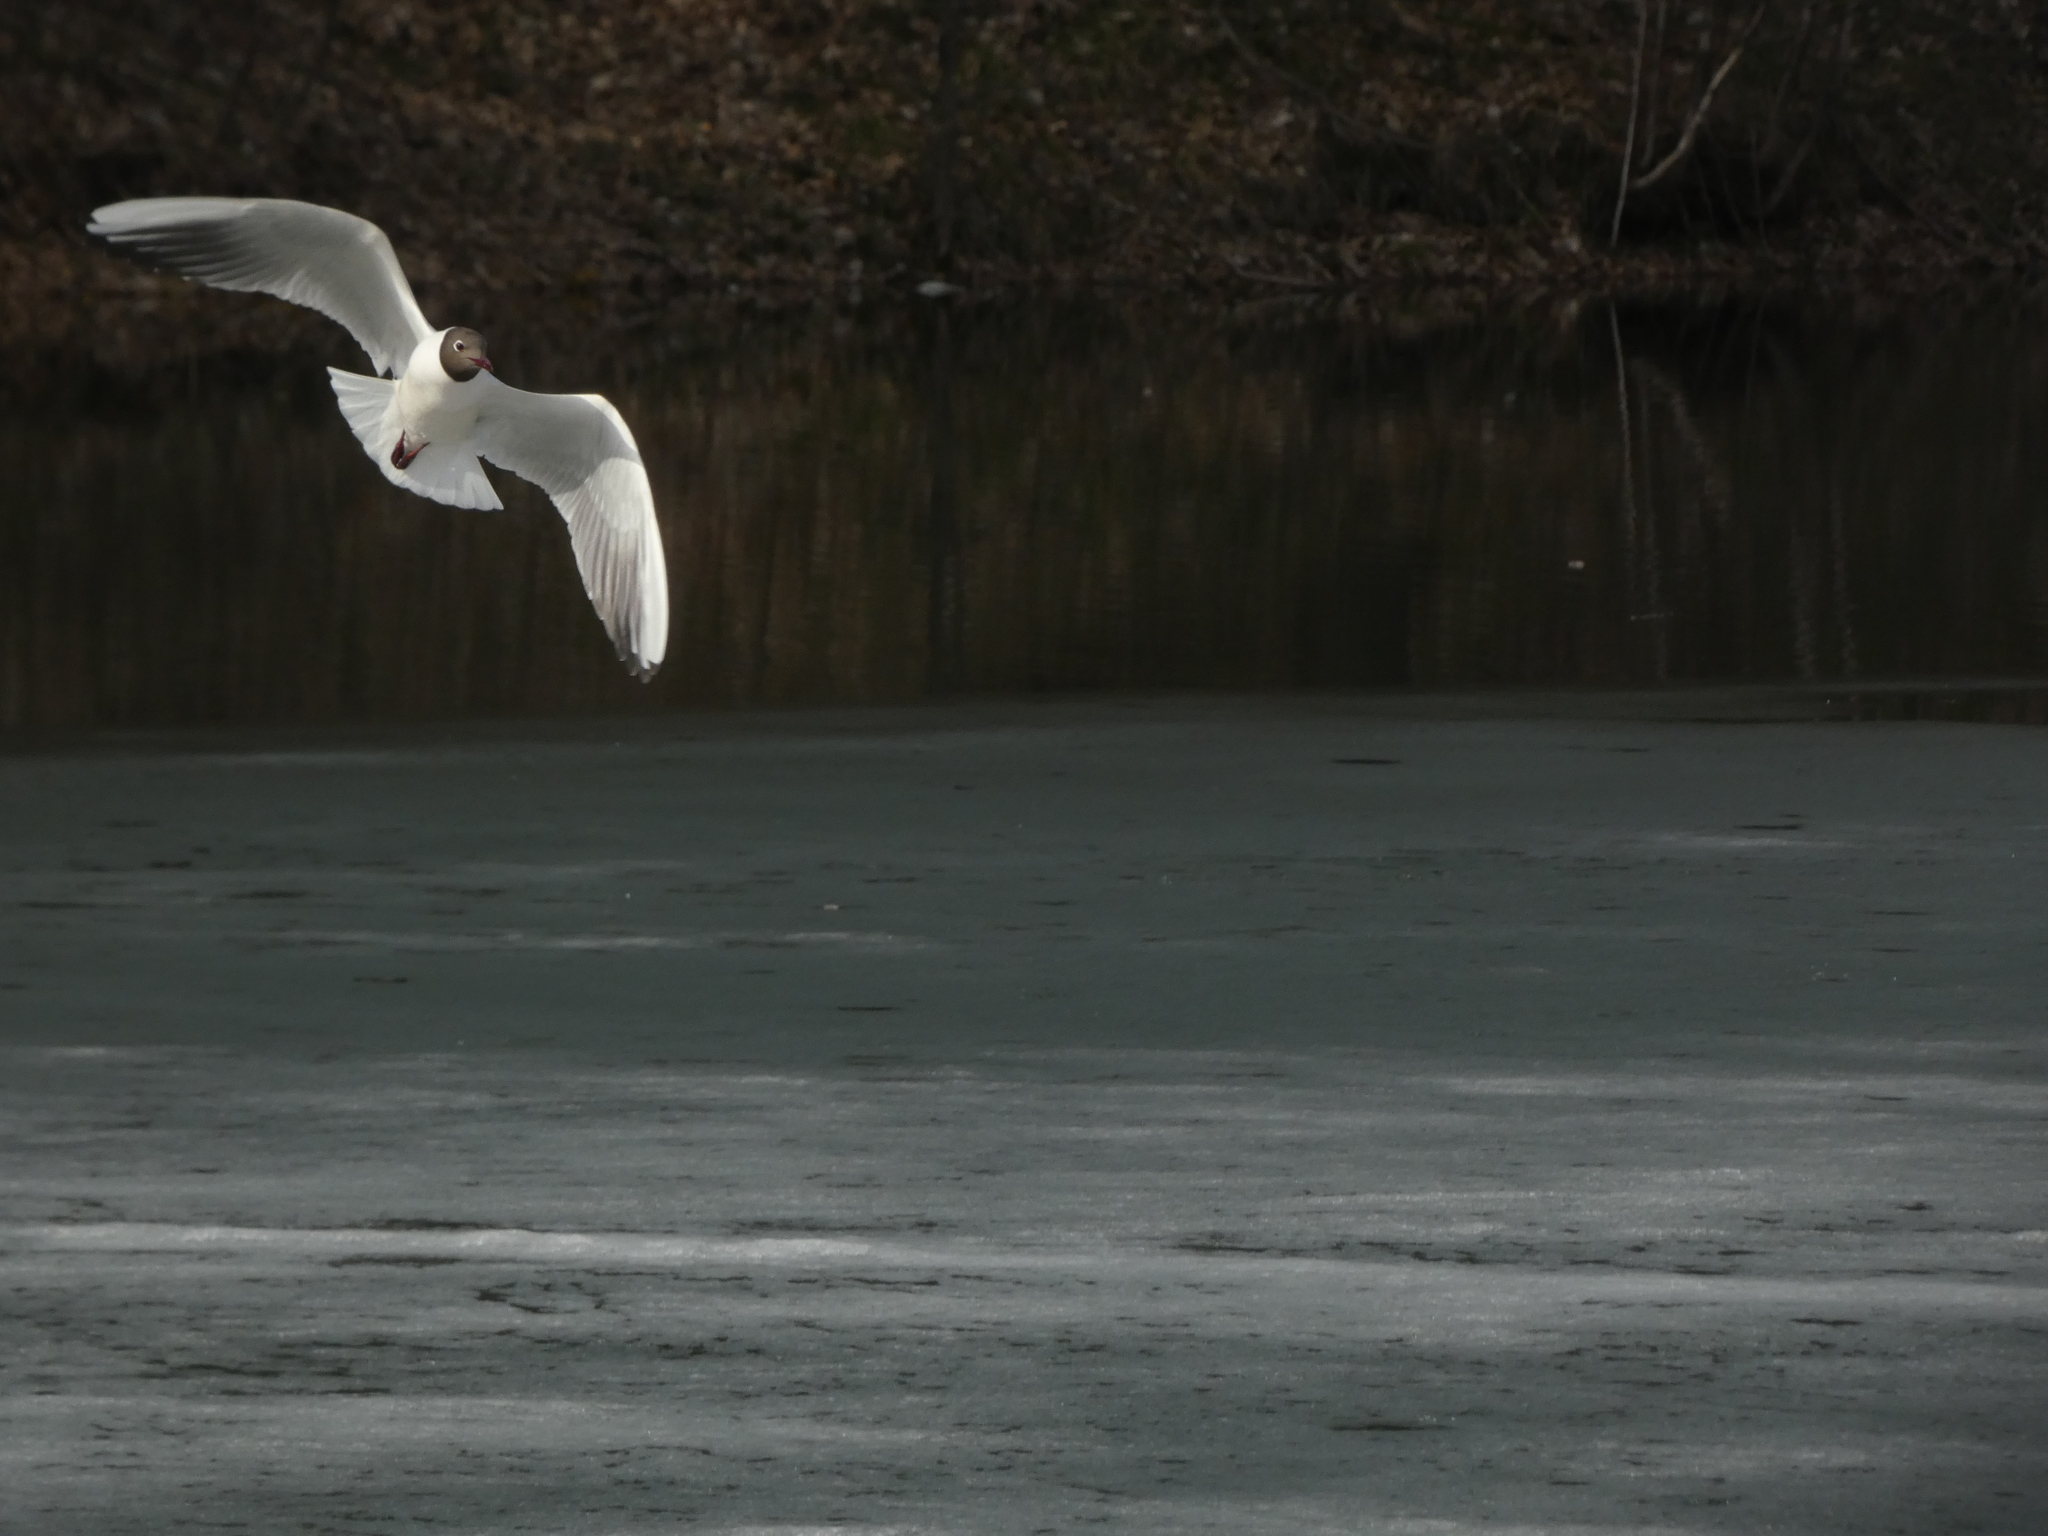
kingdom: Animalia
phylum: Chordata
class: Aves
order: Charadriiformes
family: Laridae
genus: Chroicocephalus
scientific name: Chroicocephalus ridibundus
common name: Black-headed gull
